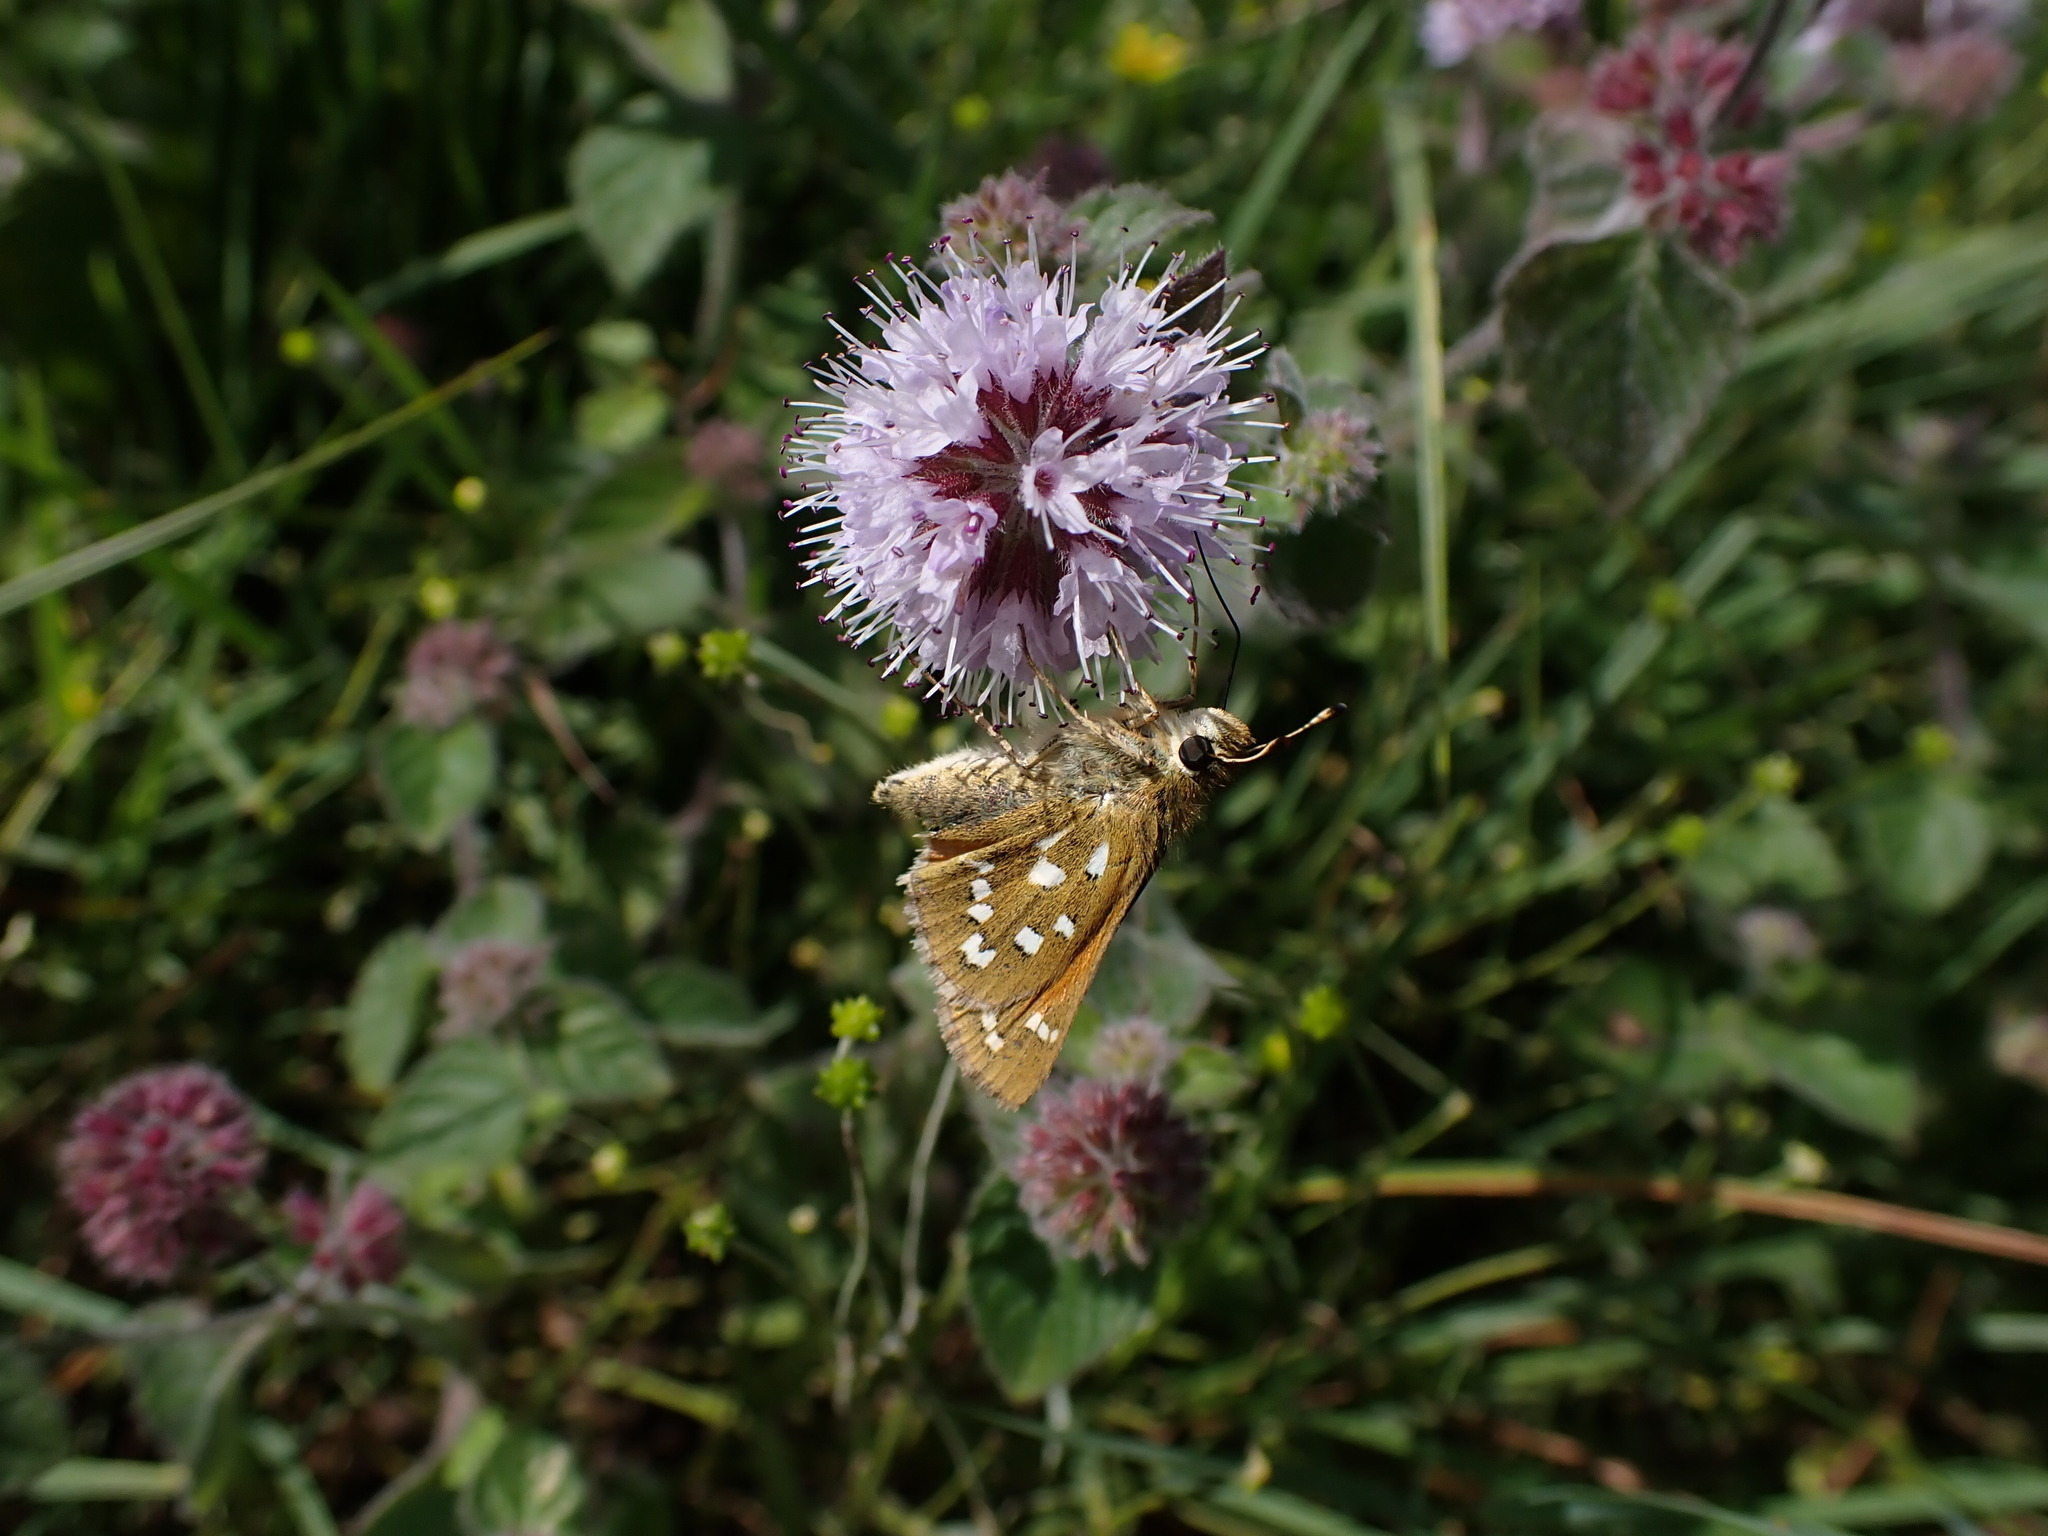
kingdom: Animalia
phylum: Arthropoda
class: Insecta
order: Lepidoptera
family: Hesperiidae
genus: Hesperia
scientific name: Hesperia comma
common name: Common branded skipper
